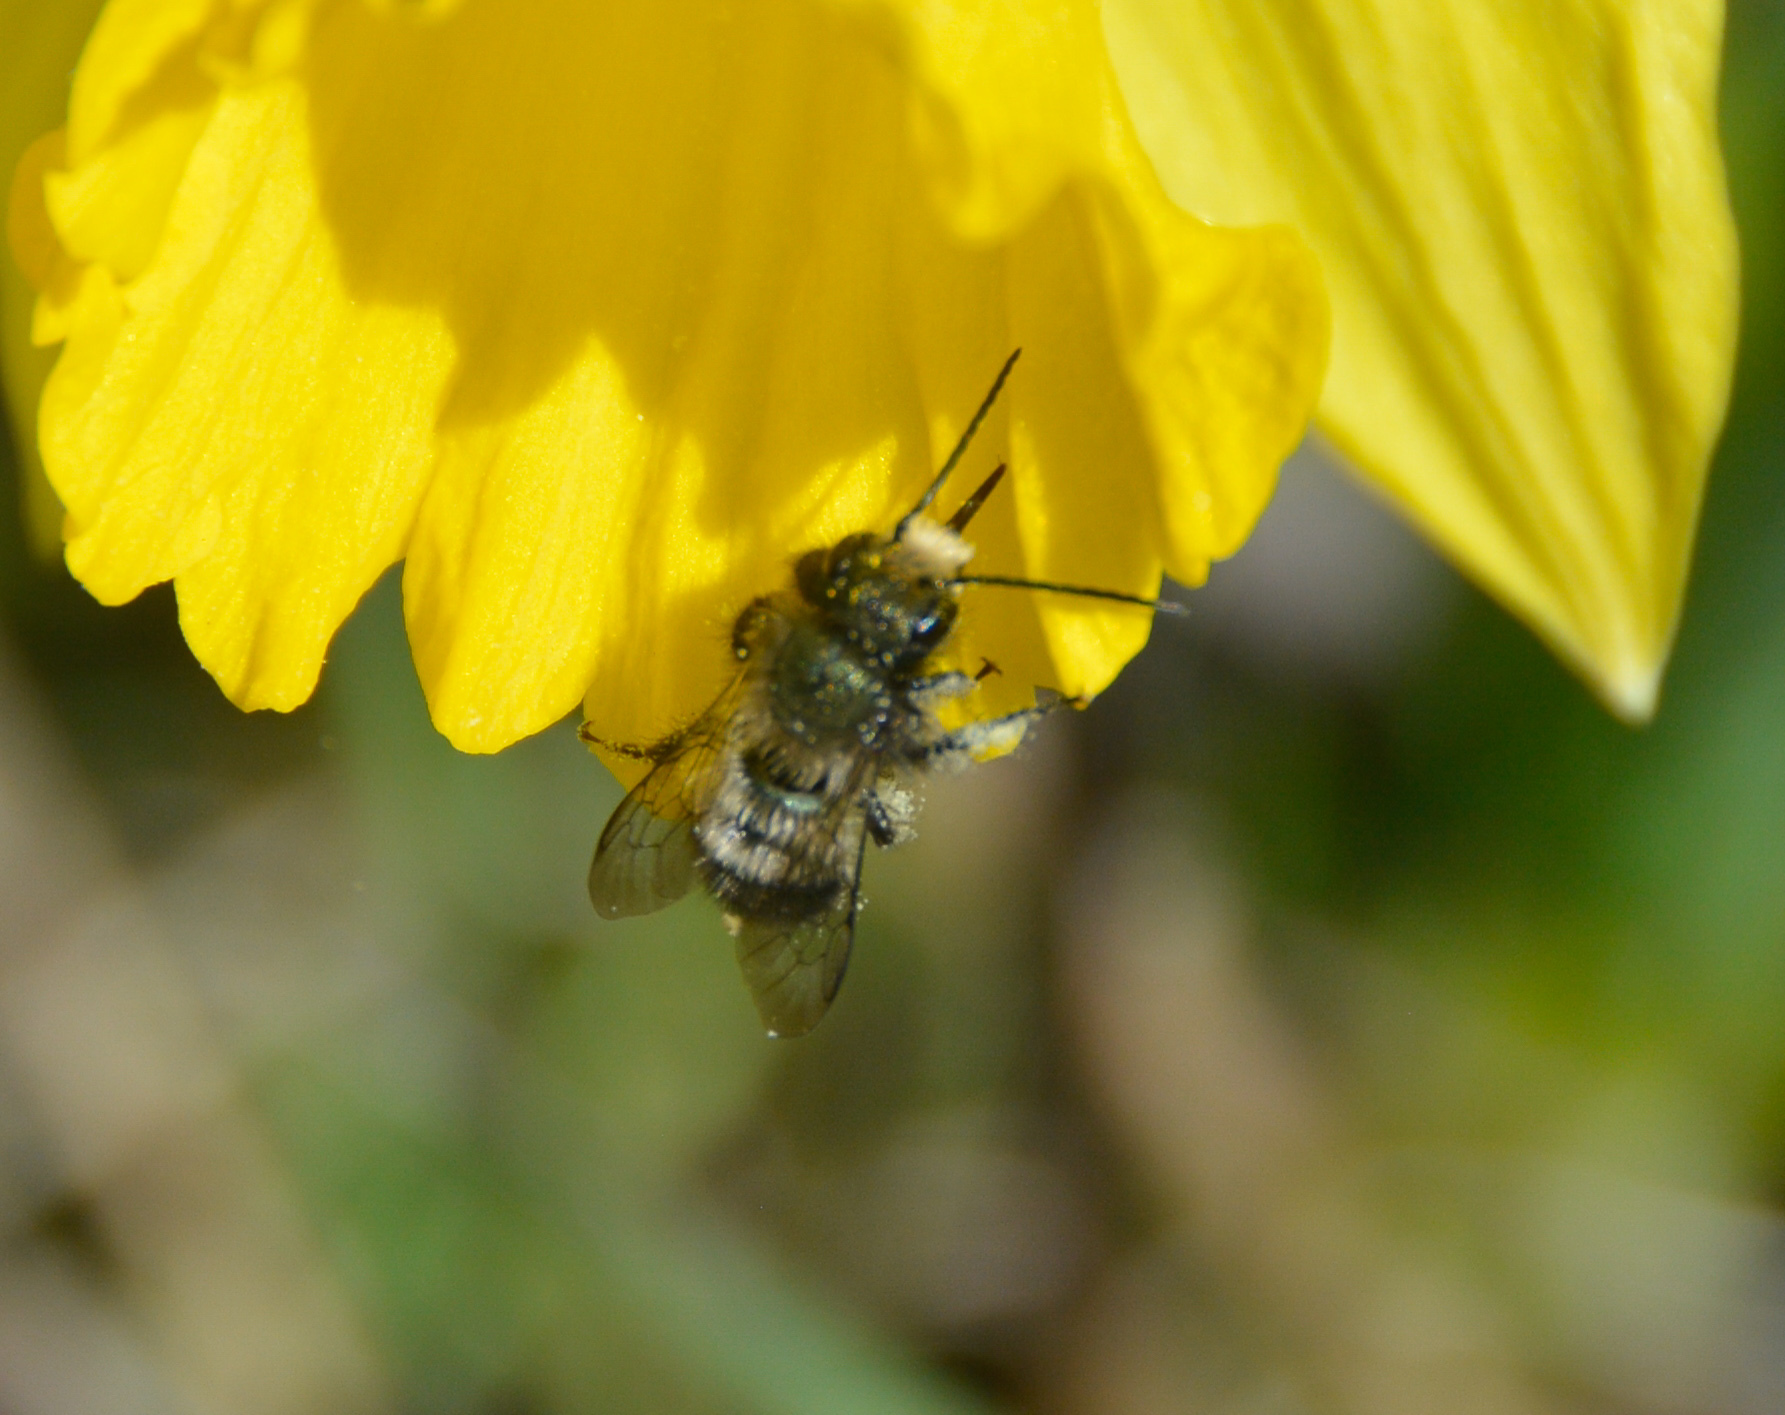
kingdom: Animalia
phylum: Arthropoda
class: Insecta
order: Hymenoptera
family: Megachilidae
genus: Osmia
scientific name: Osmia lignaria
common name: Blue orchard bee
